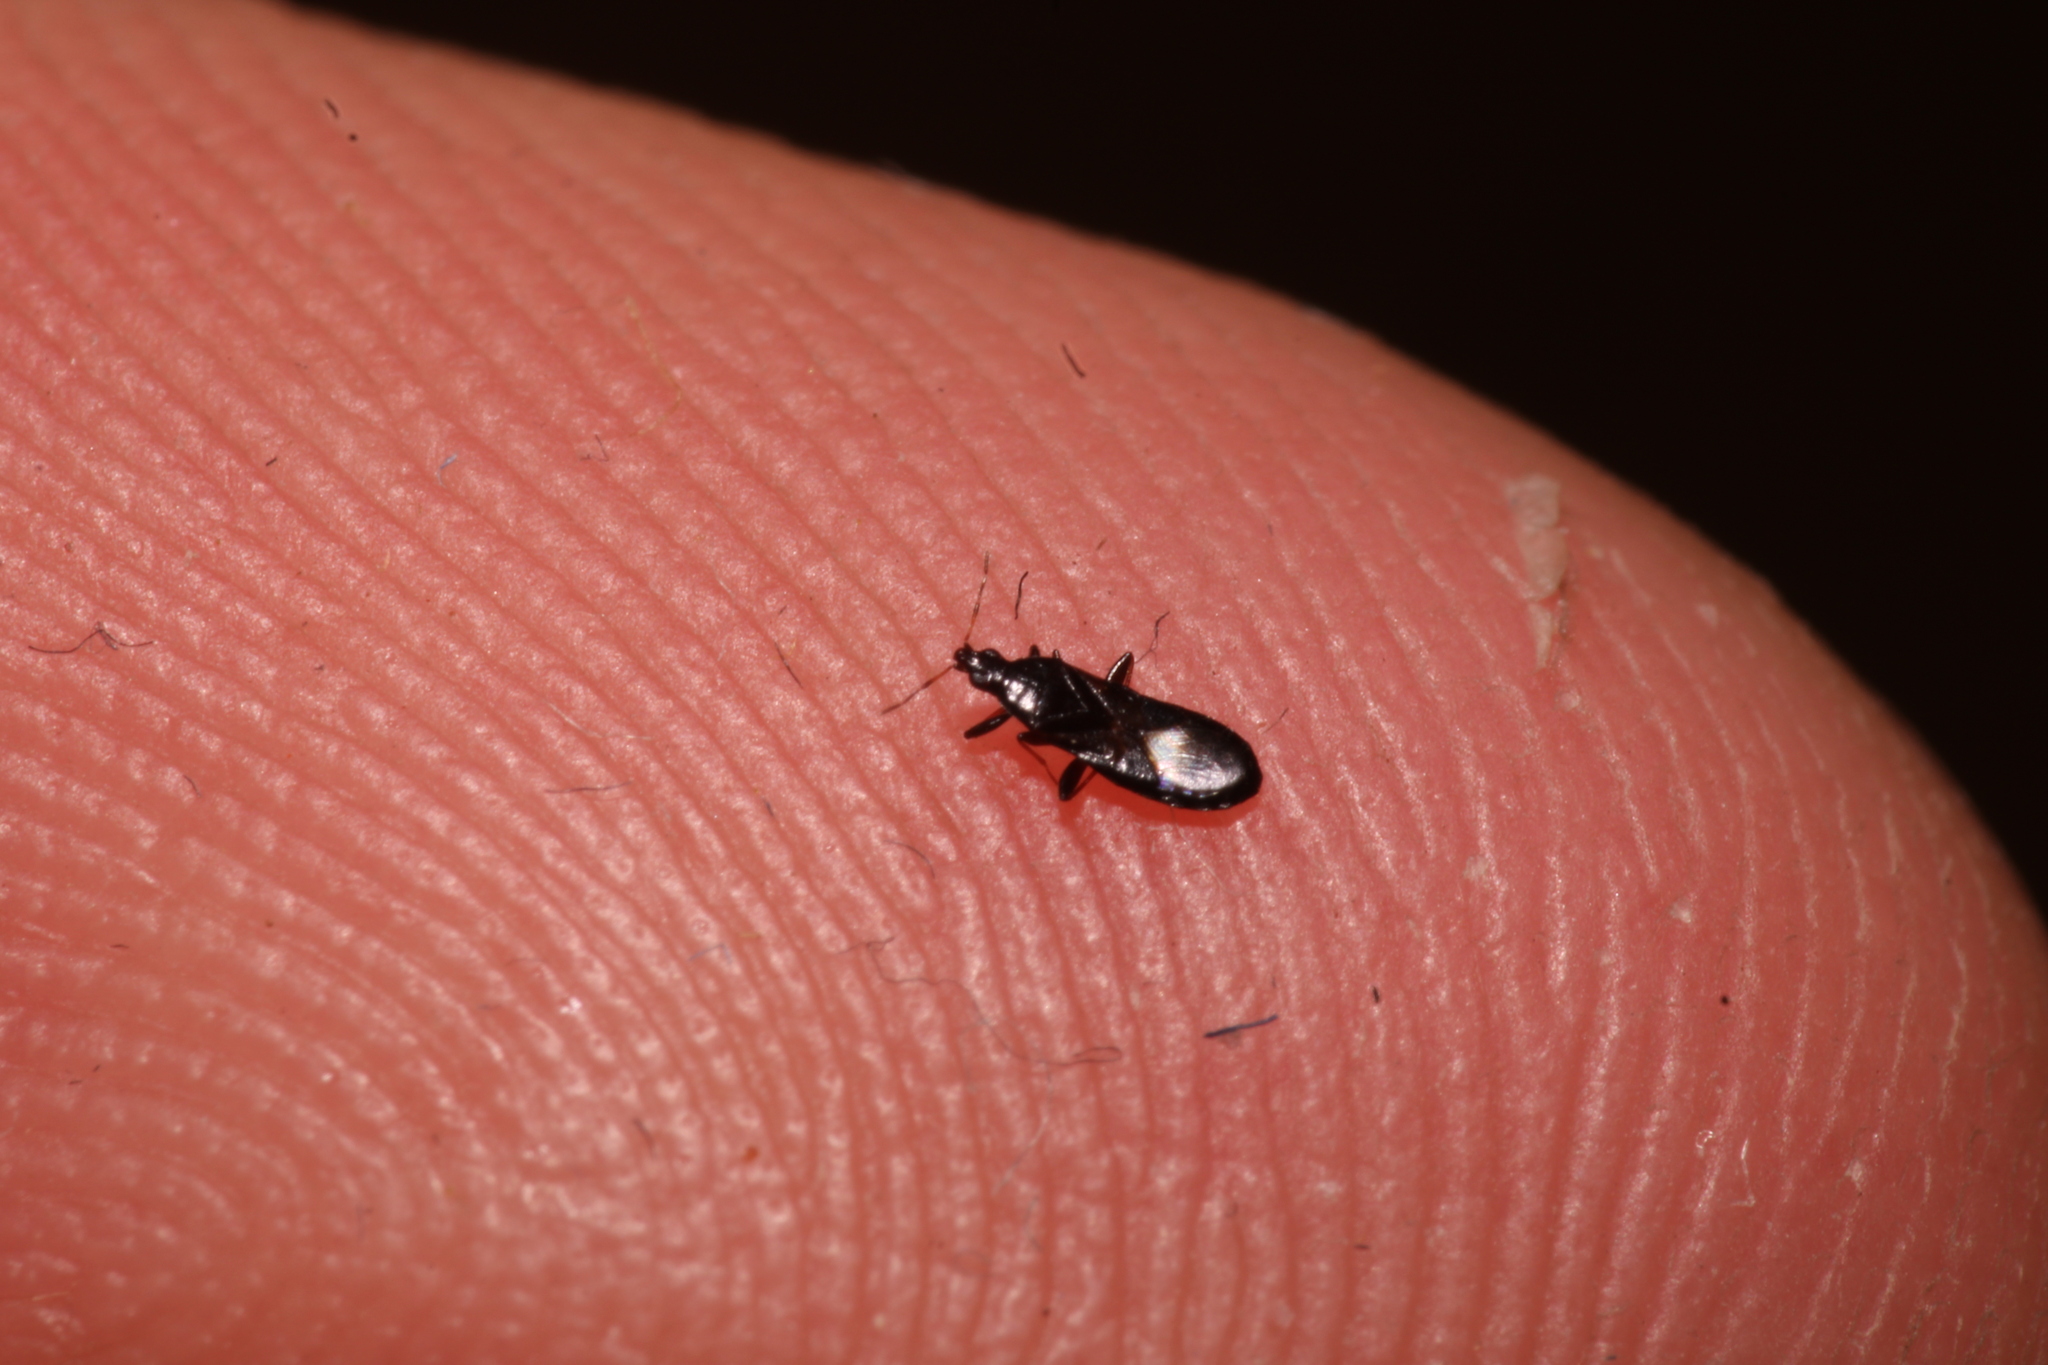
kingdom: Animalia
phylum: Arthropoda
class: Insecta
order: Hemiptera
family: Anthocoridae
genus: Dufouriellus
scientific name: Dufouriellus ater
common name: Minute pirate bug
